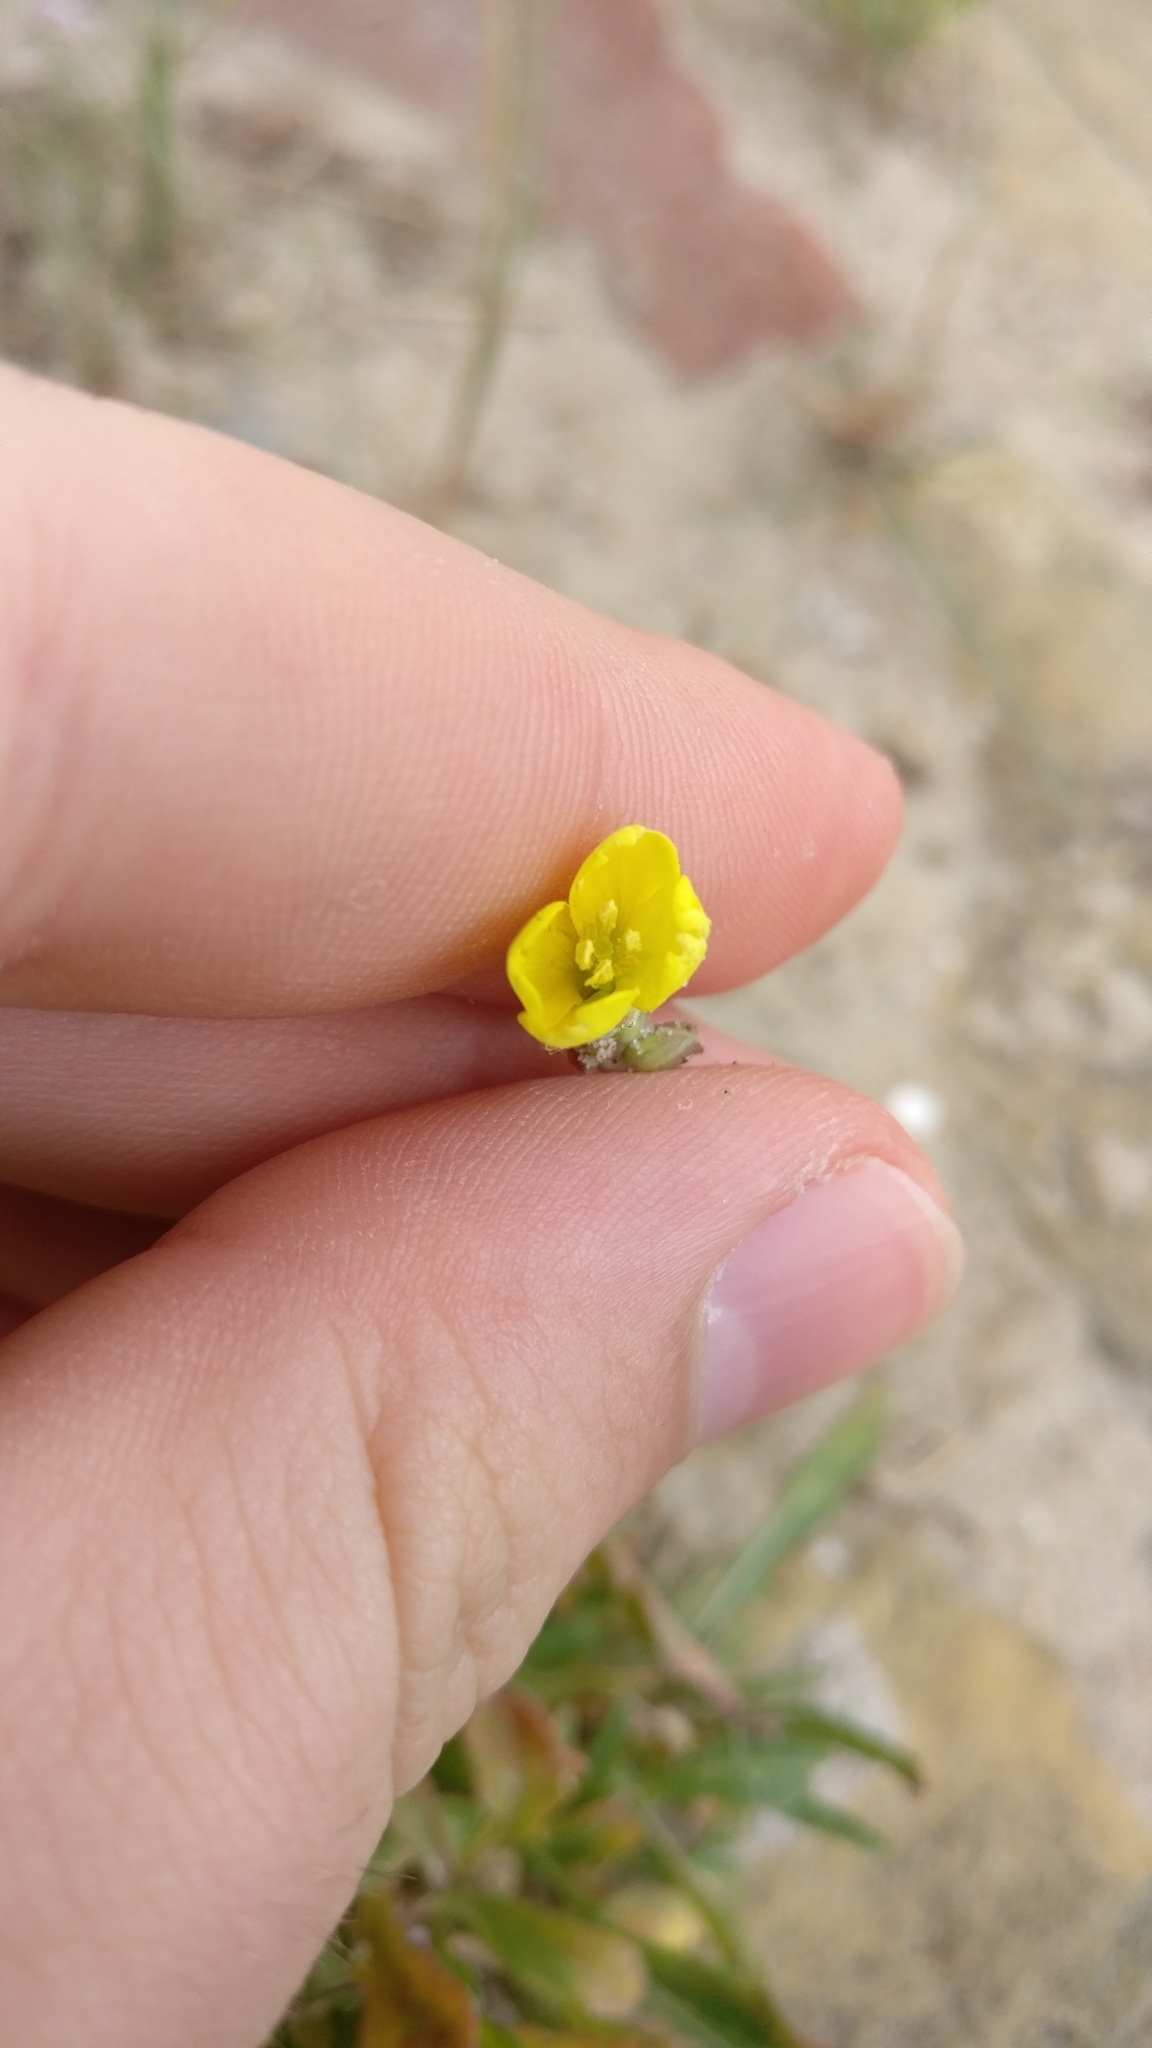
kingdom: Plantae
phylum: Tracheophyta
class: Magnoliopsida
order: Brassicales
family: Brassicaceae
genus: Diplotaxis
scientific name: Diplotaxis tenuifolia
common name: Perennial wall-rocket
